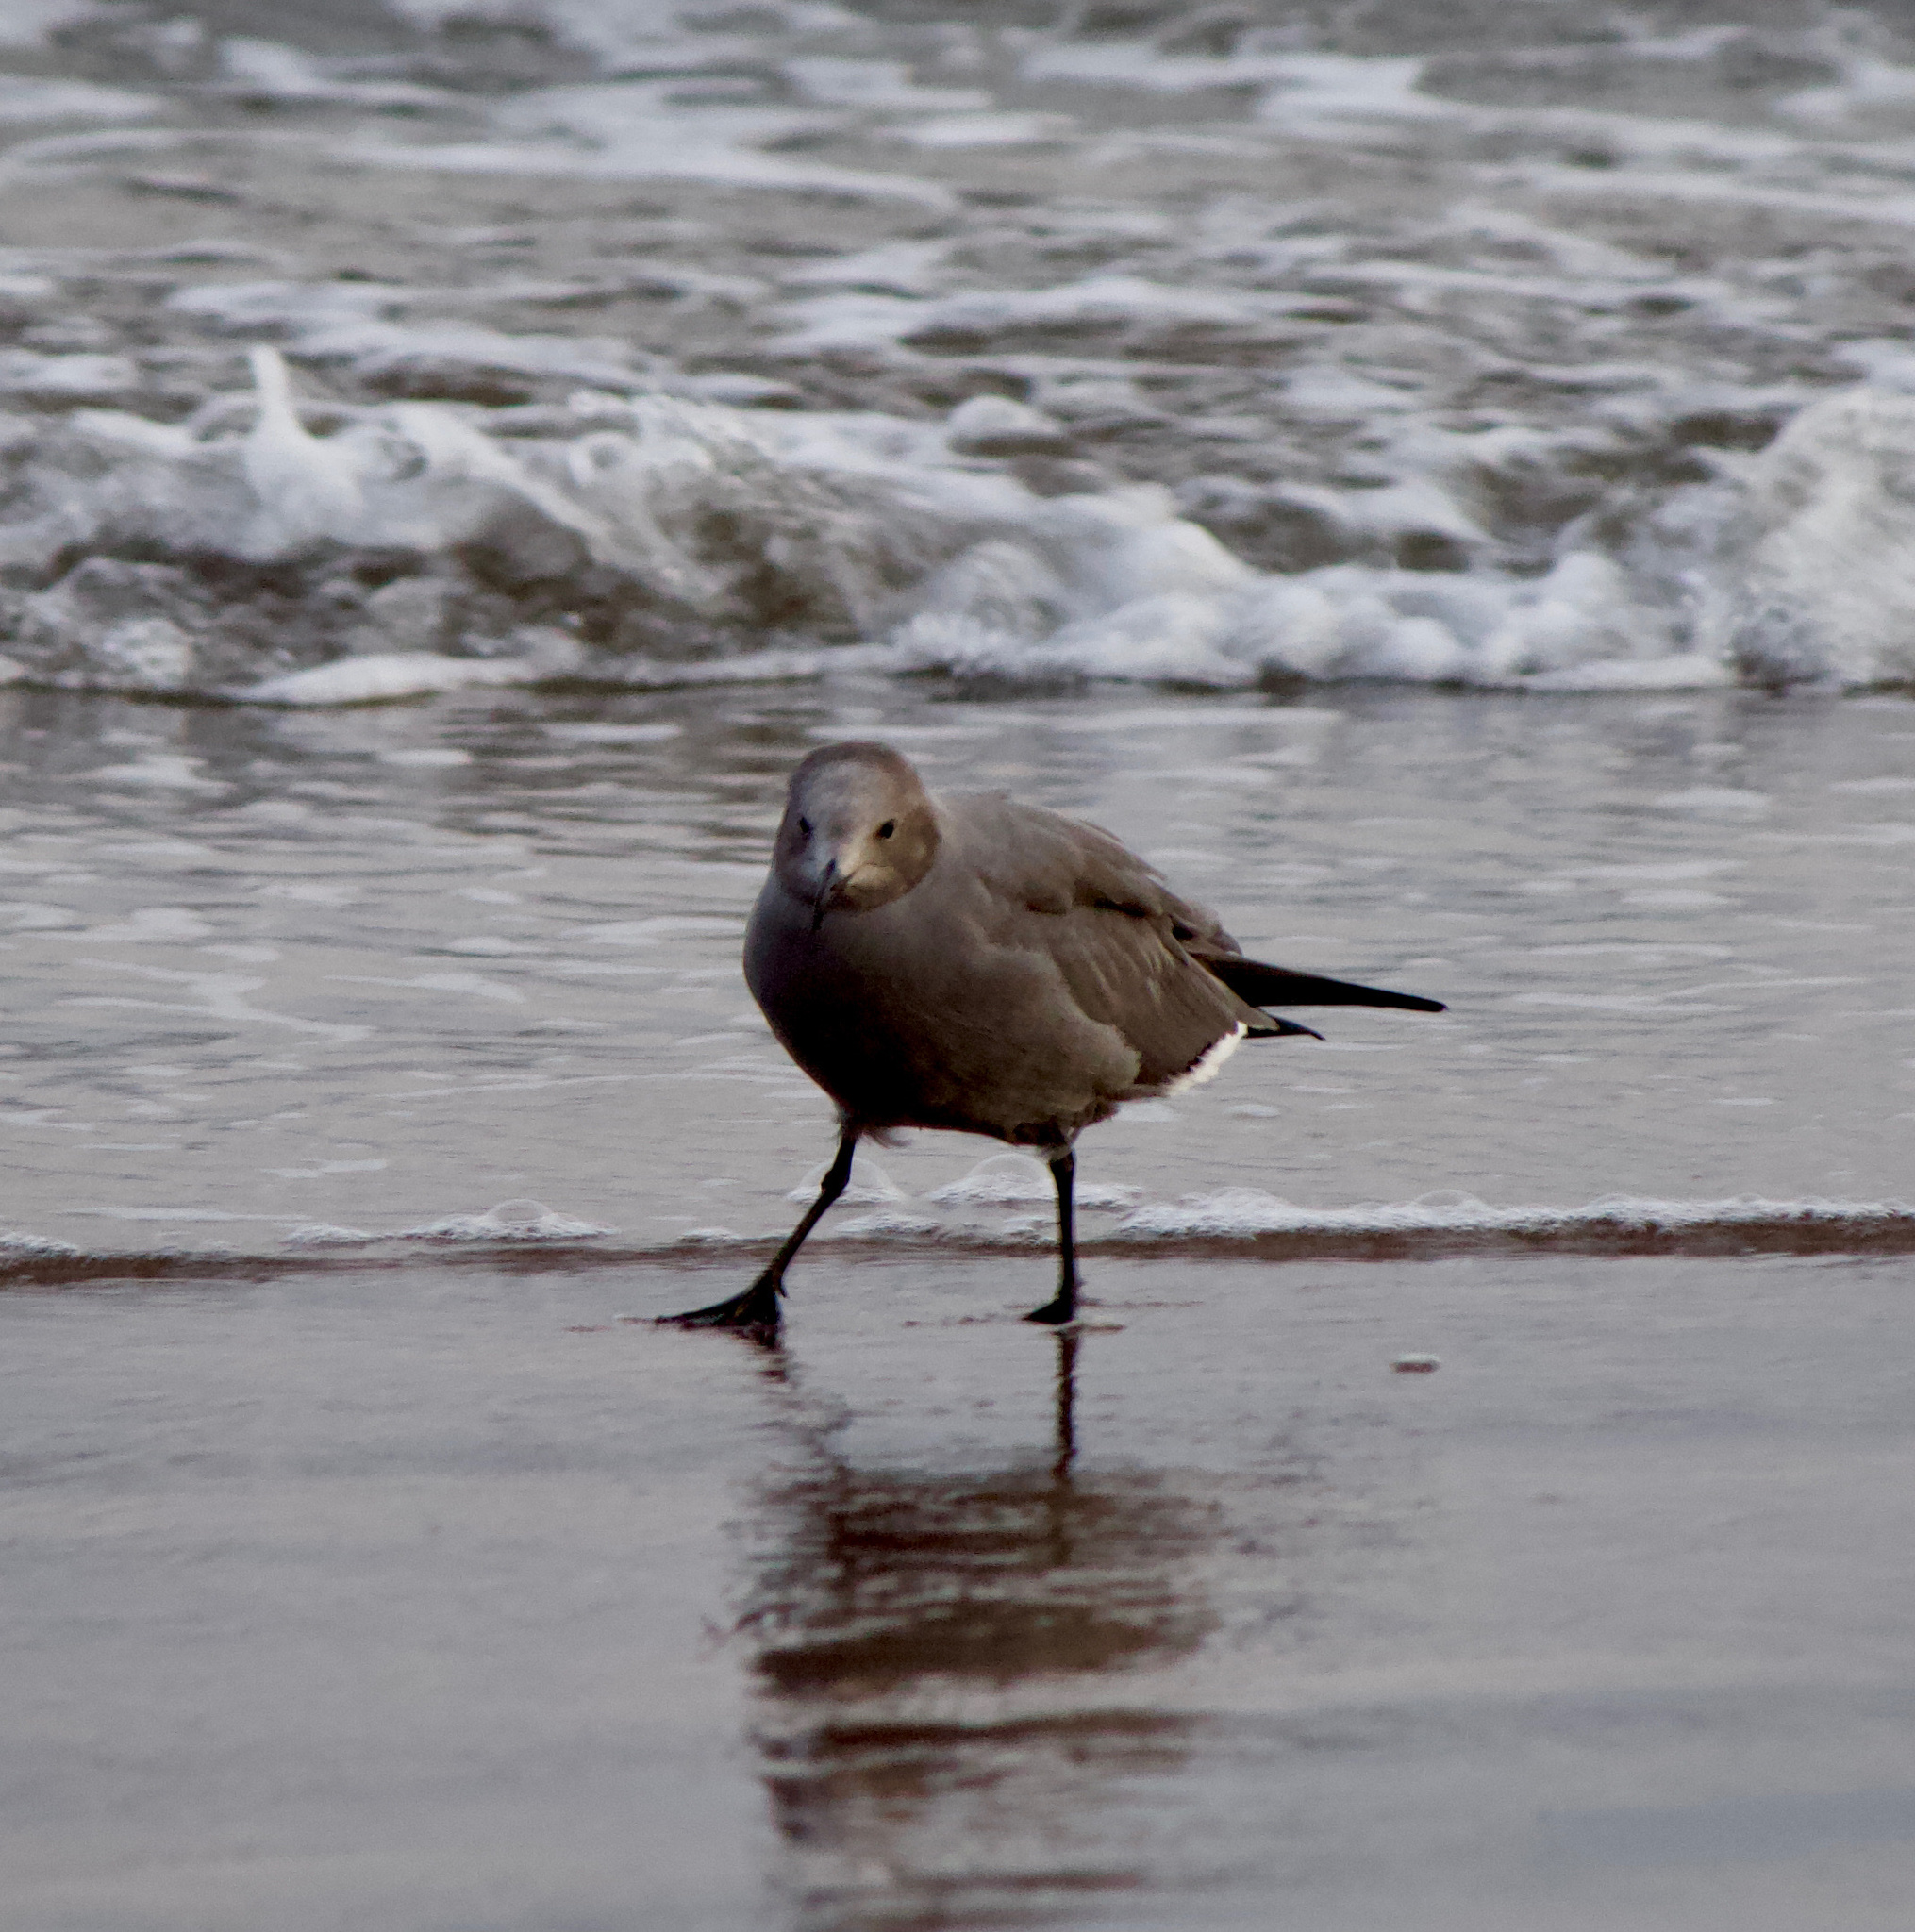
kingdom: Animalia
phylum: Chordata
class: Aves
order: Charadriiformes
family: Laridae
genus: Leucophaeus
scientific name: Leucophaeus modestus
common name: Gray gull
